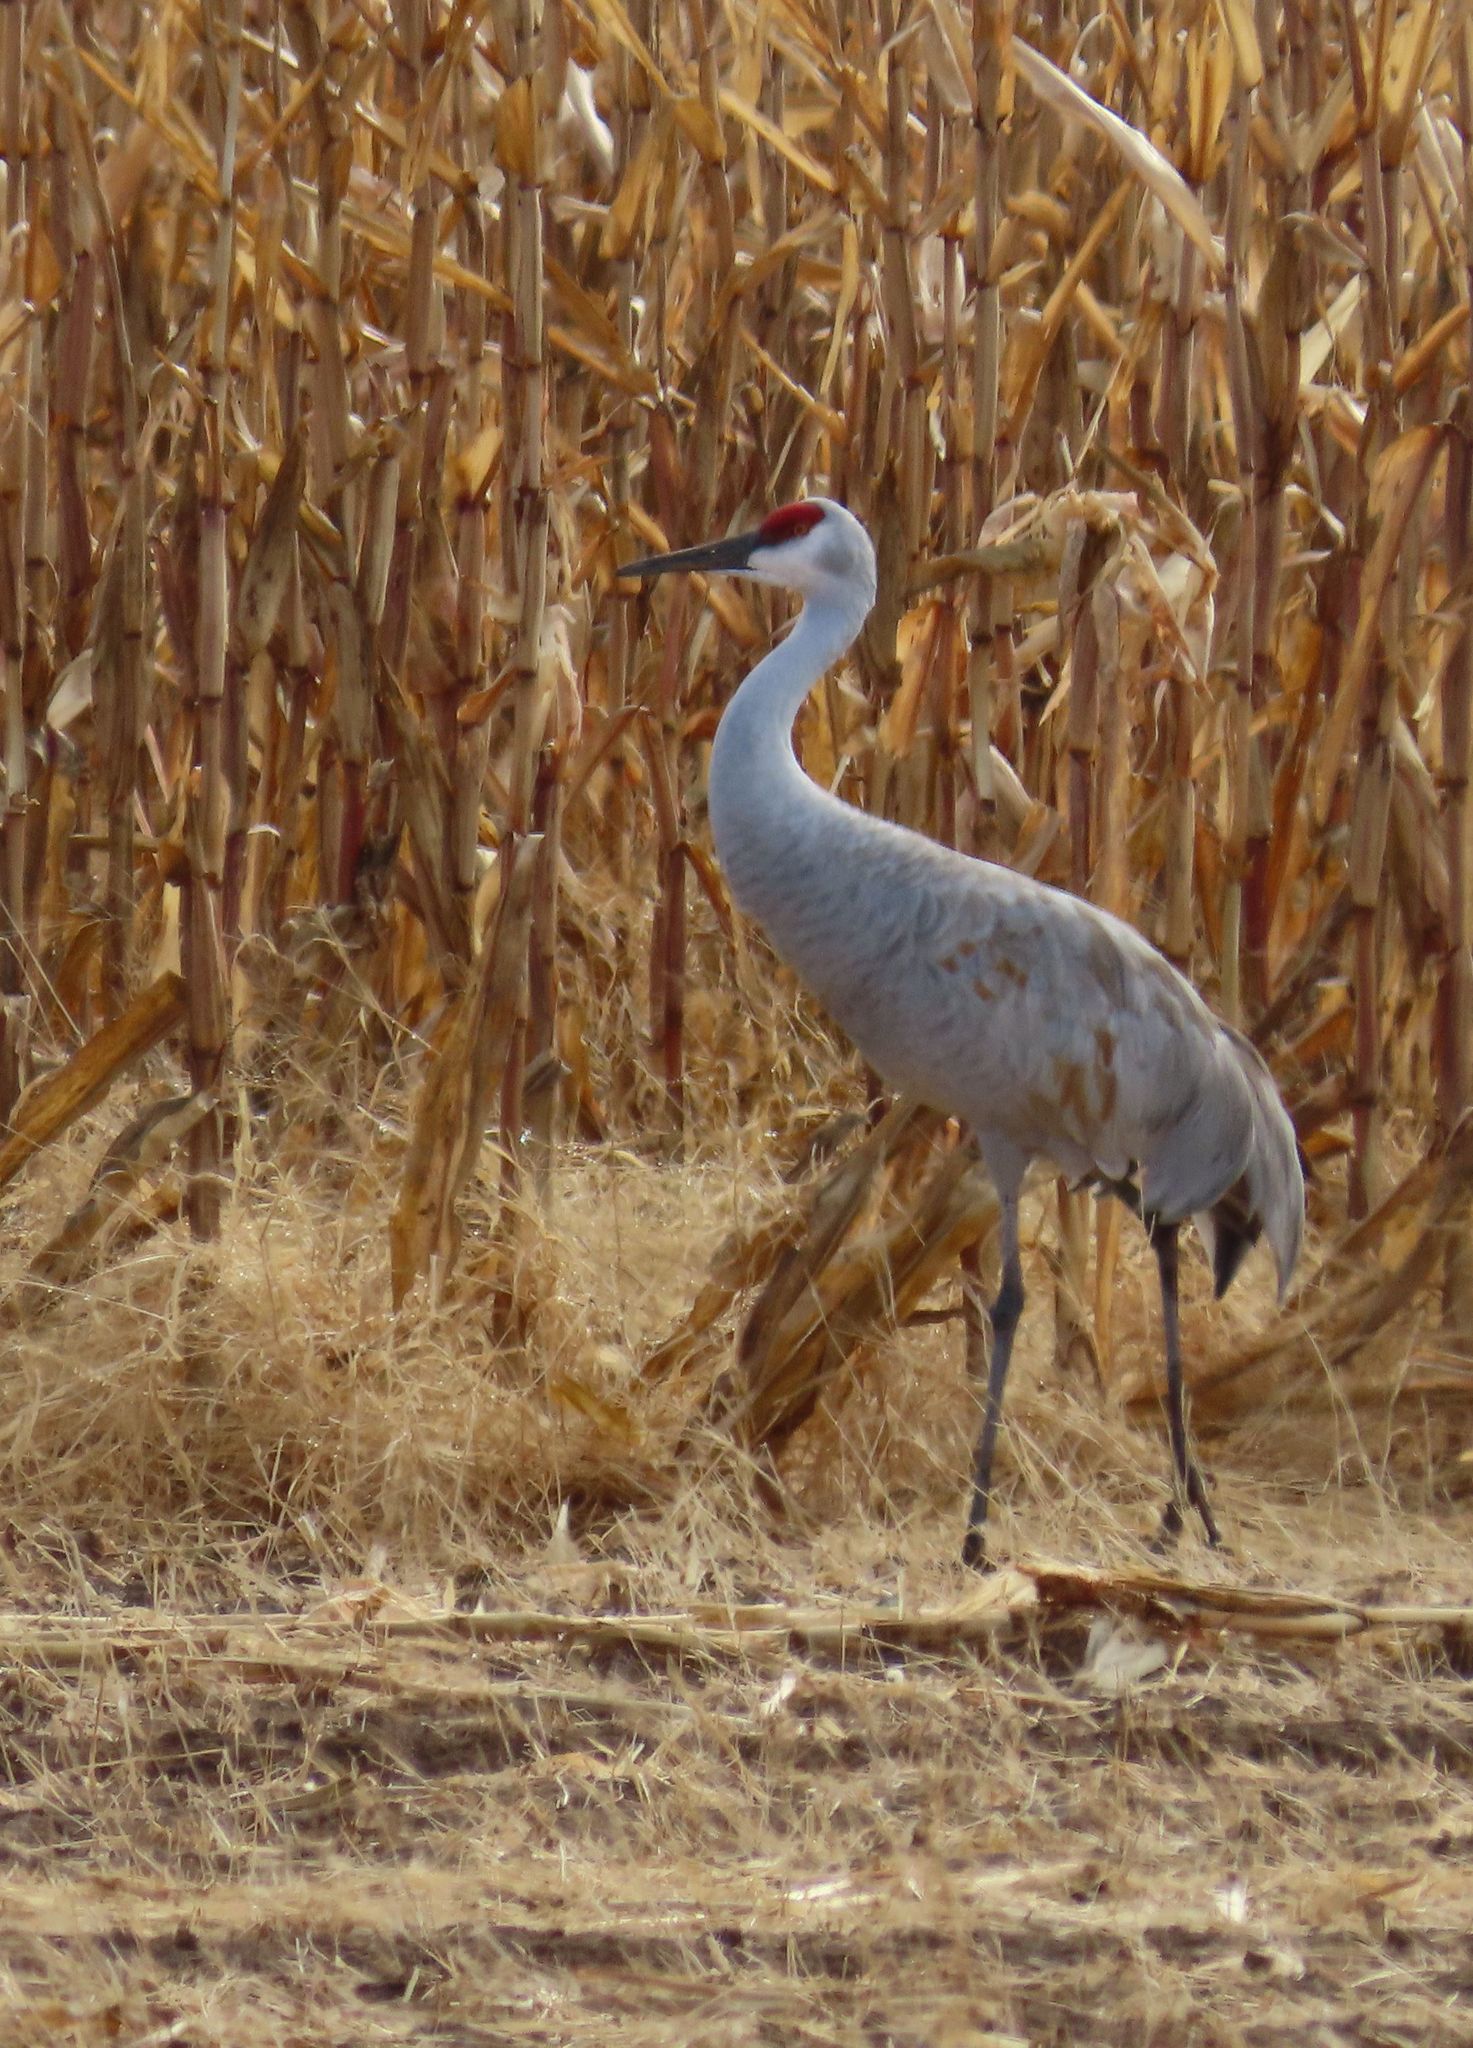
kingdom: Animalia
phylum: Chordata
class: Aves
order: Gruiformes
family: Gruidae
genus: Grus
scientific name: Grus canadensis
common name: Sandhill crane
